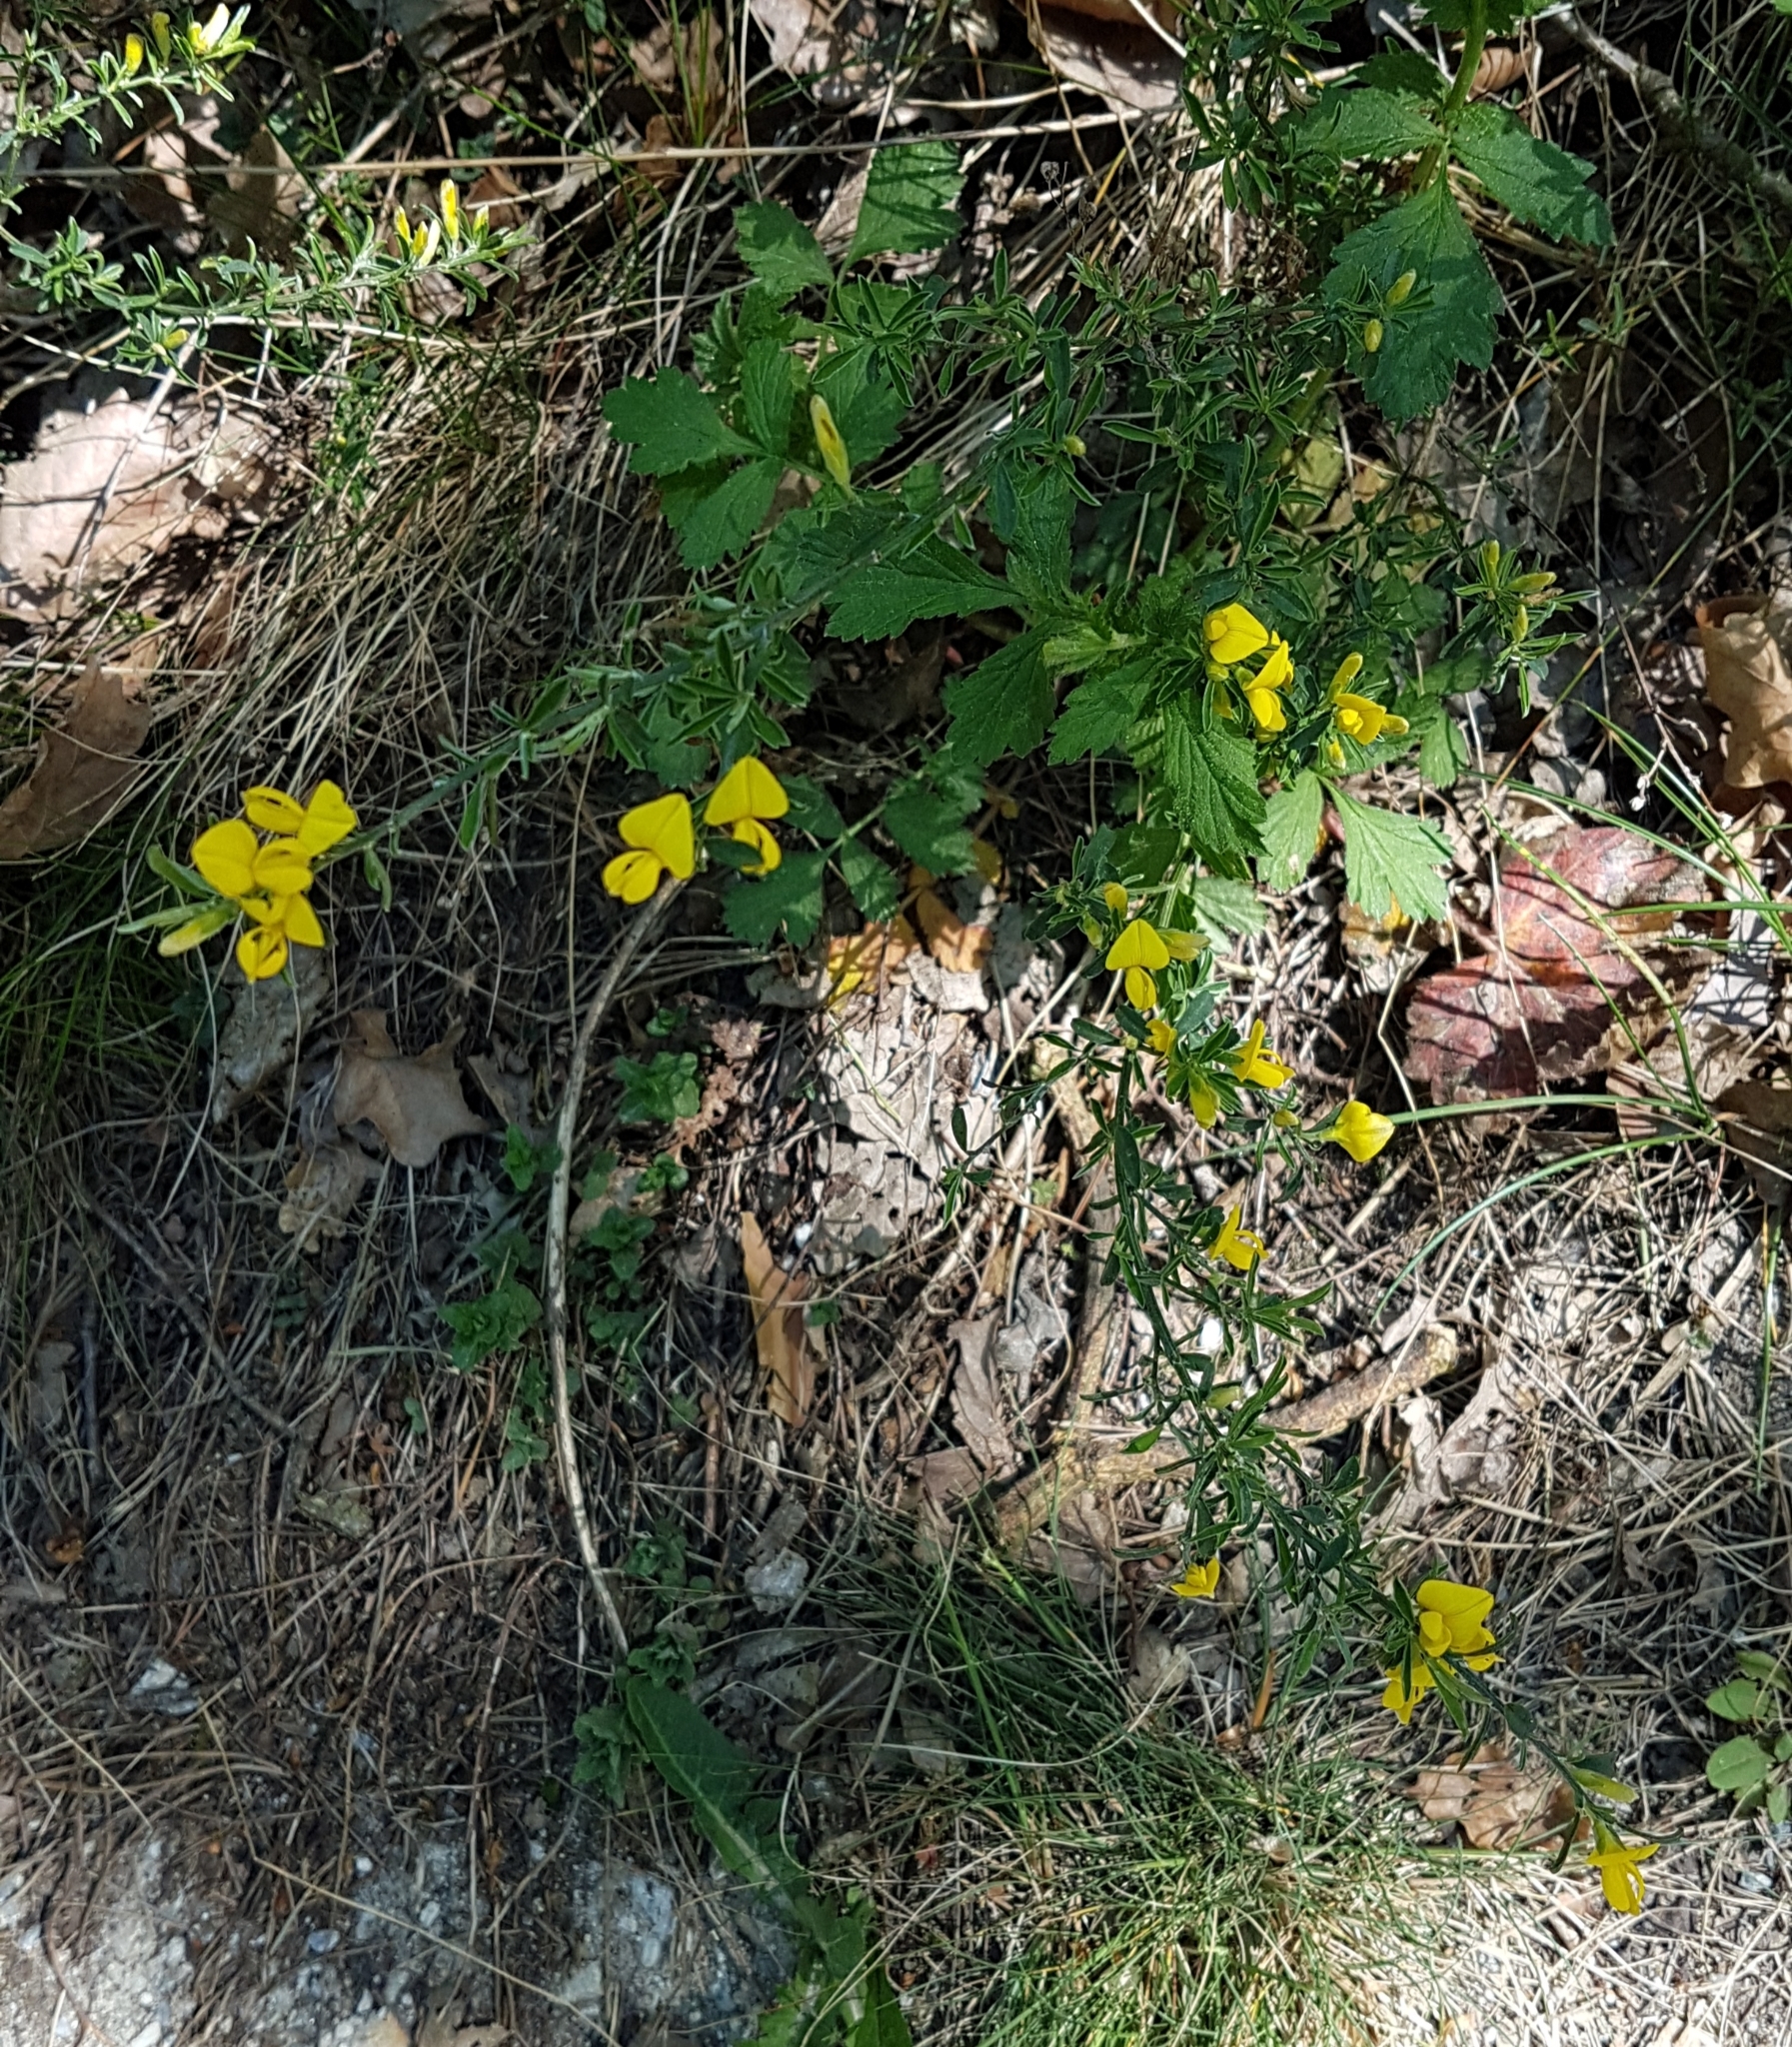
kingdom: Plantae
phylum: Tracheophyta
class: Magnoliopsida
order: Fabales
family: Fabaceae
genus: Genista
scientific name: Genista pilosa
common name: Hairy greenweed
